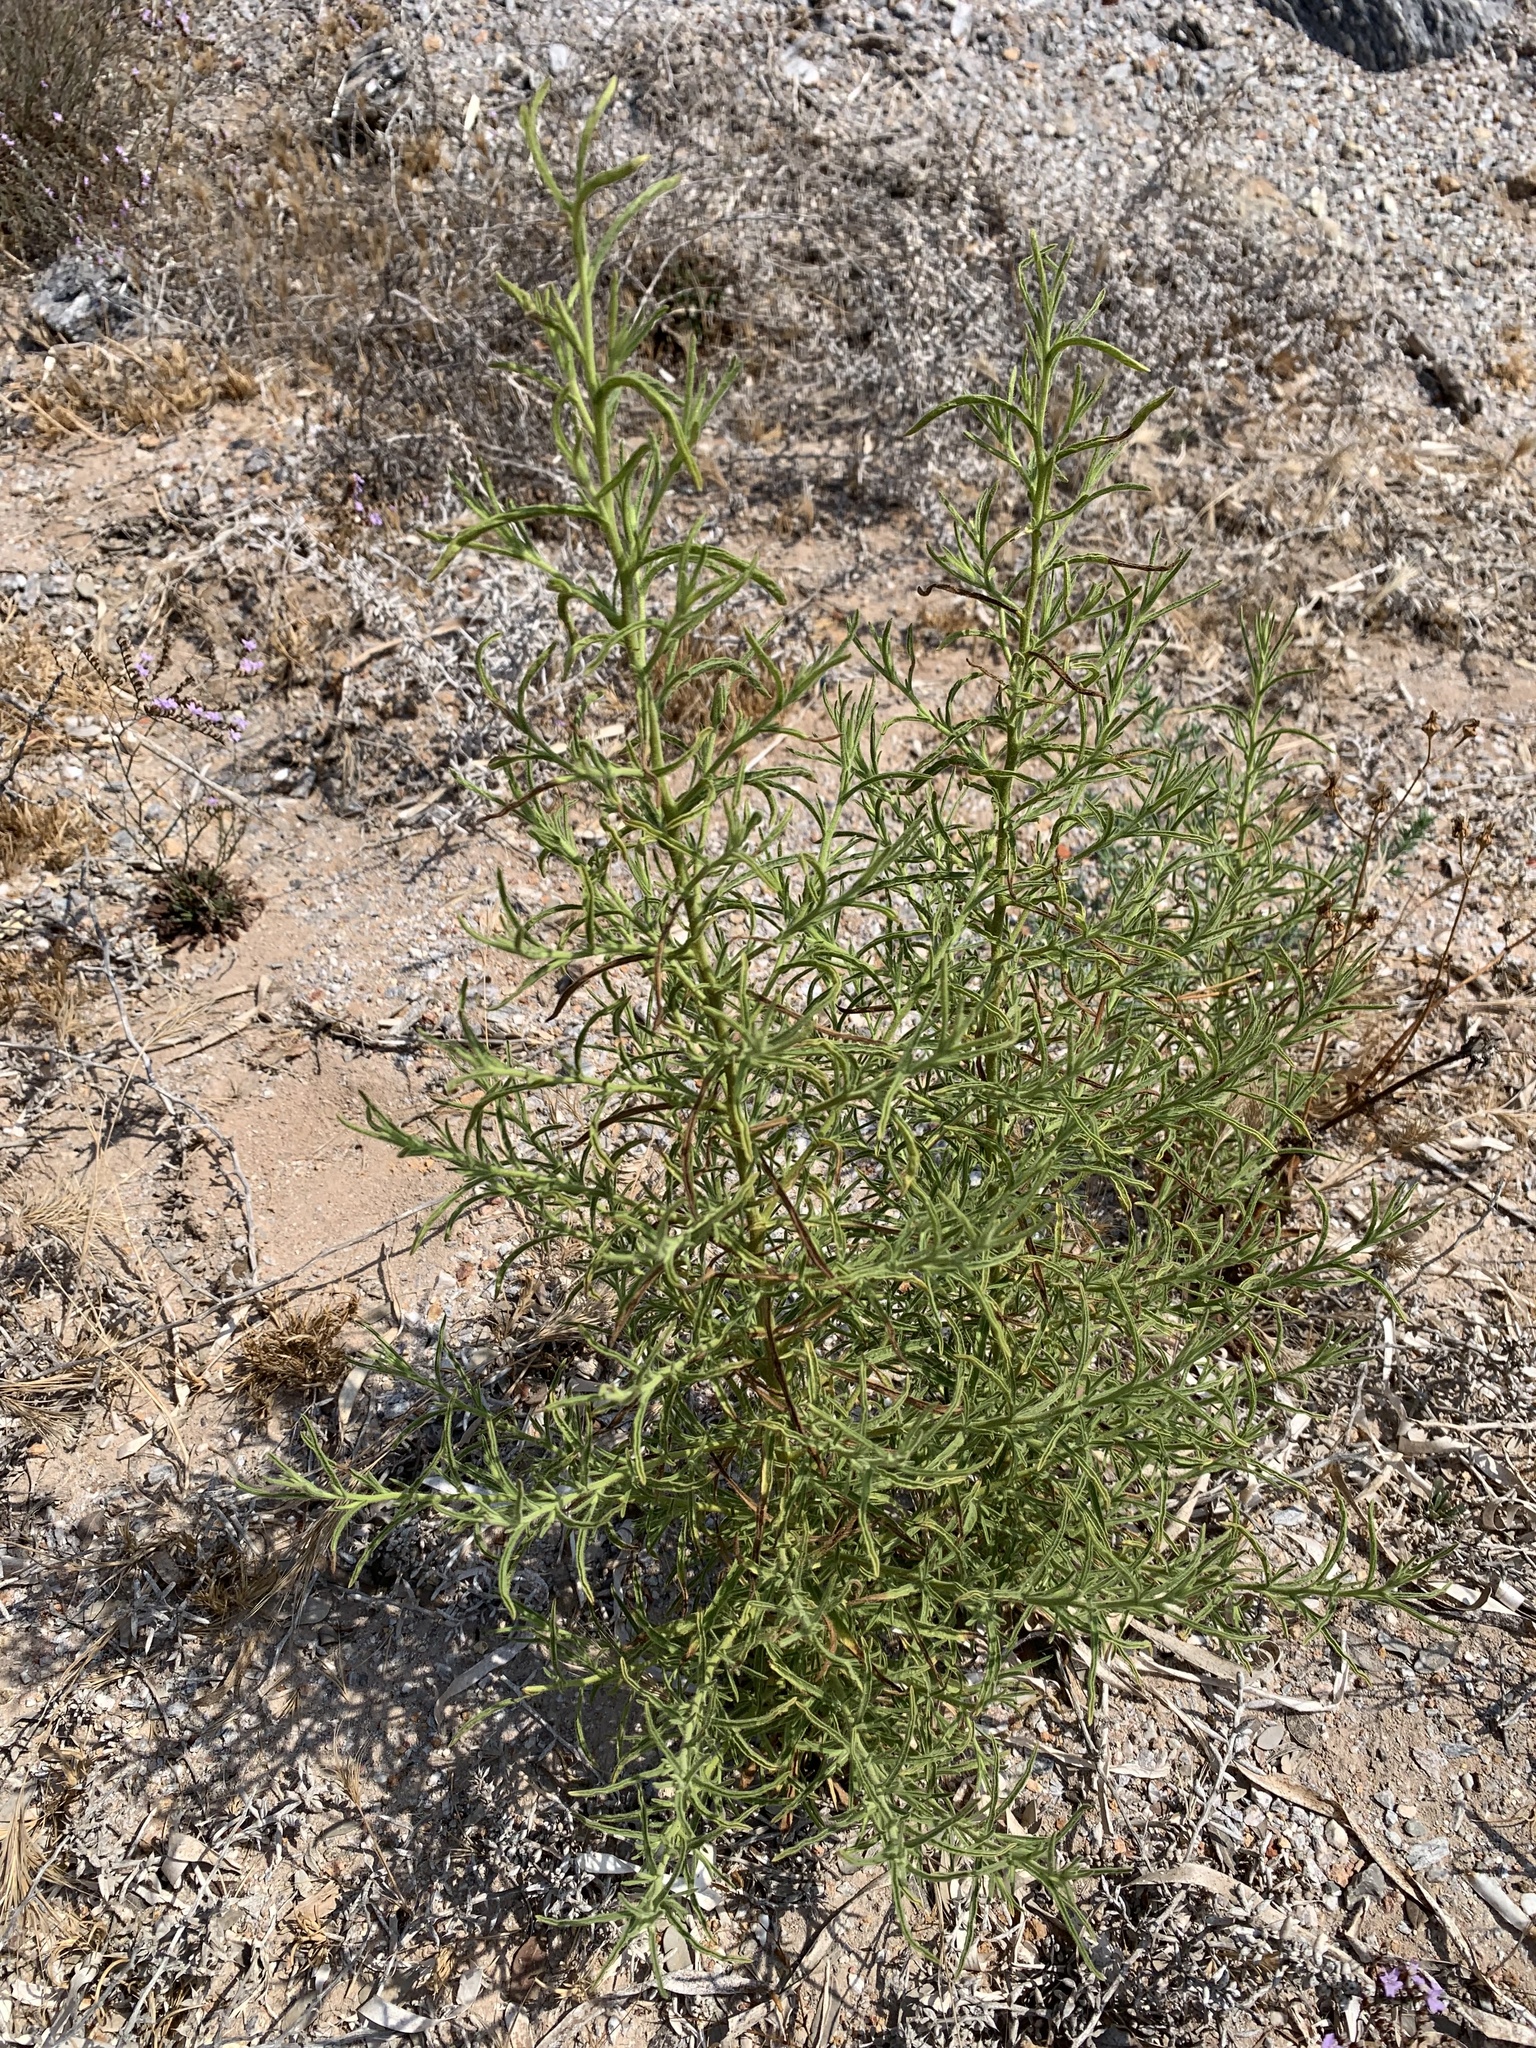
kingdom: Plantae
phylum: Tracheophyta
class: Magnoliopsida
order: Asterales
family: Asteraceae
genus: Dittrichia
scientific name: Dittrichia graveolens
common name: Stinking fleabane
